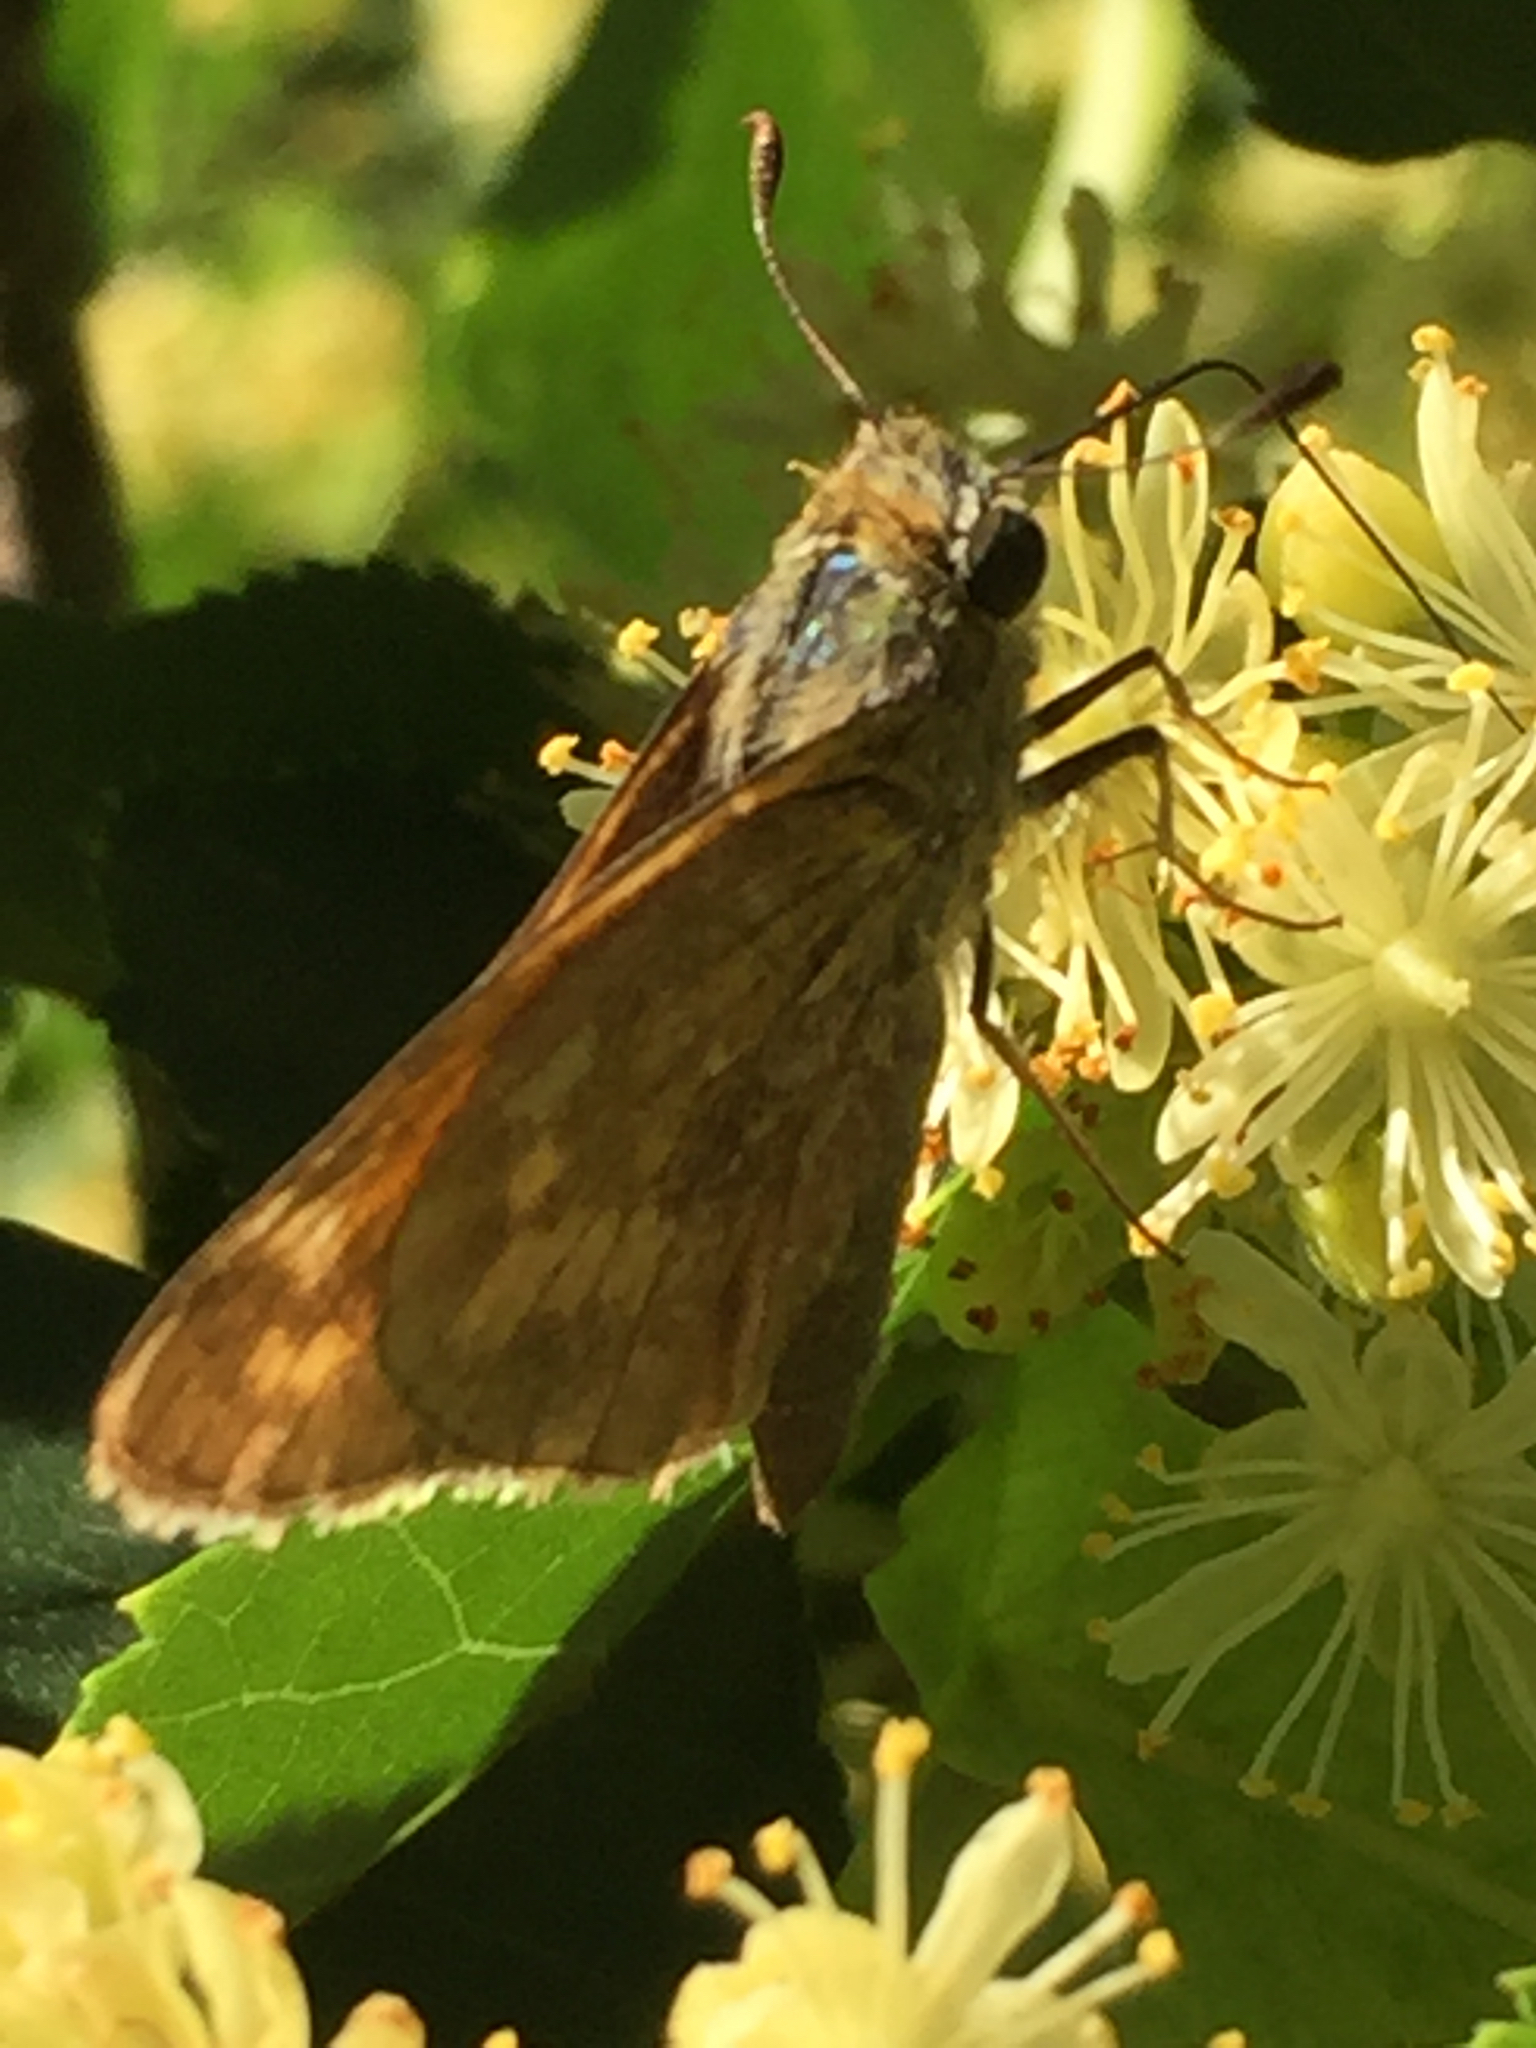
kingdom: Animalia
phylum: Arthropoda
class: Insecta
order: Lepidoptera
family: Hesperiidae
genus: Atalopedes
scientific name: Atalopedes
